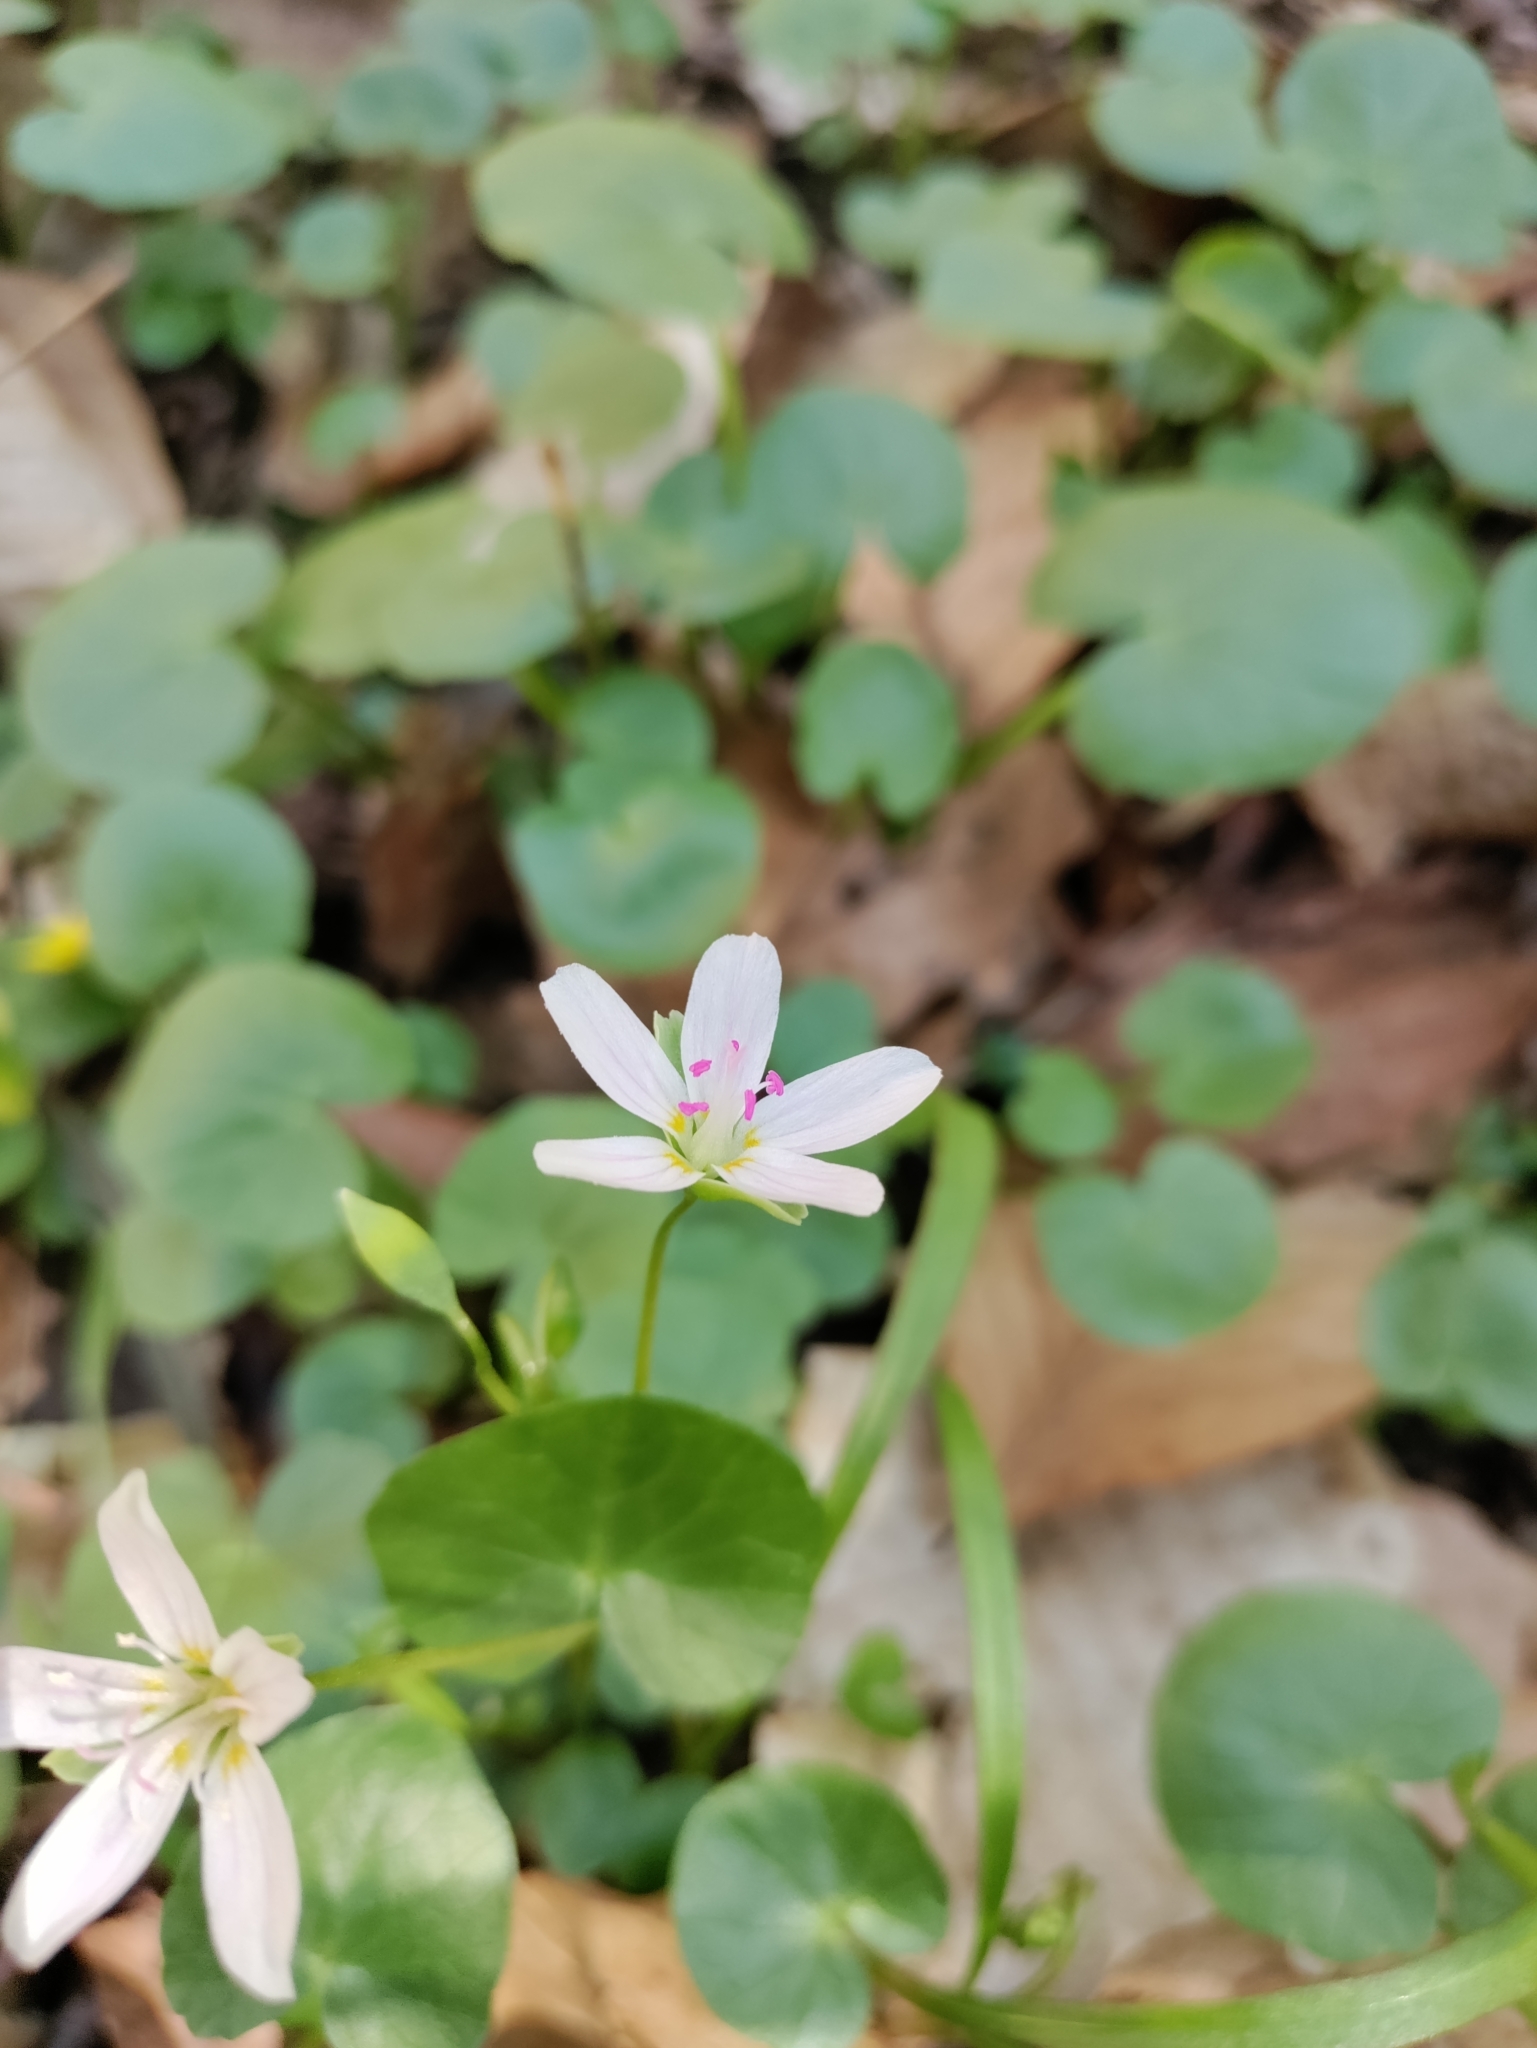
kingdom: Plantae
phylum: Tracheophyta
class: Magnoliopsida
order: Caryophyllales
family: Montiaceae
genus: Claytonia
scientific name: Claytonia virginica
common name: Virginia springbeauty
